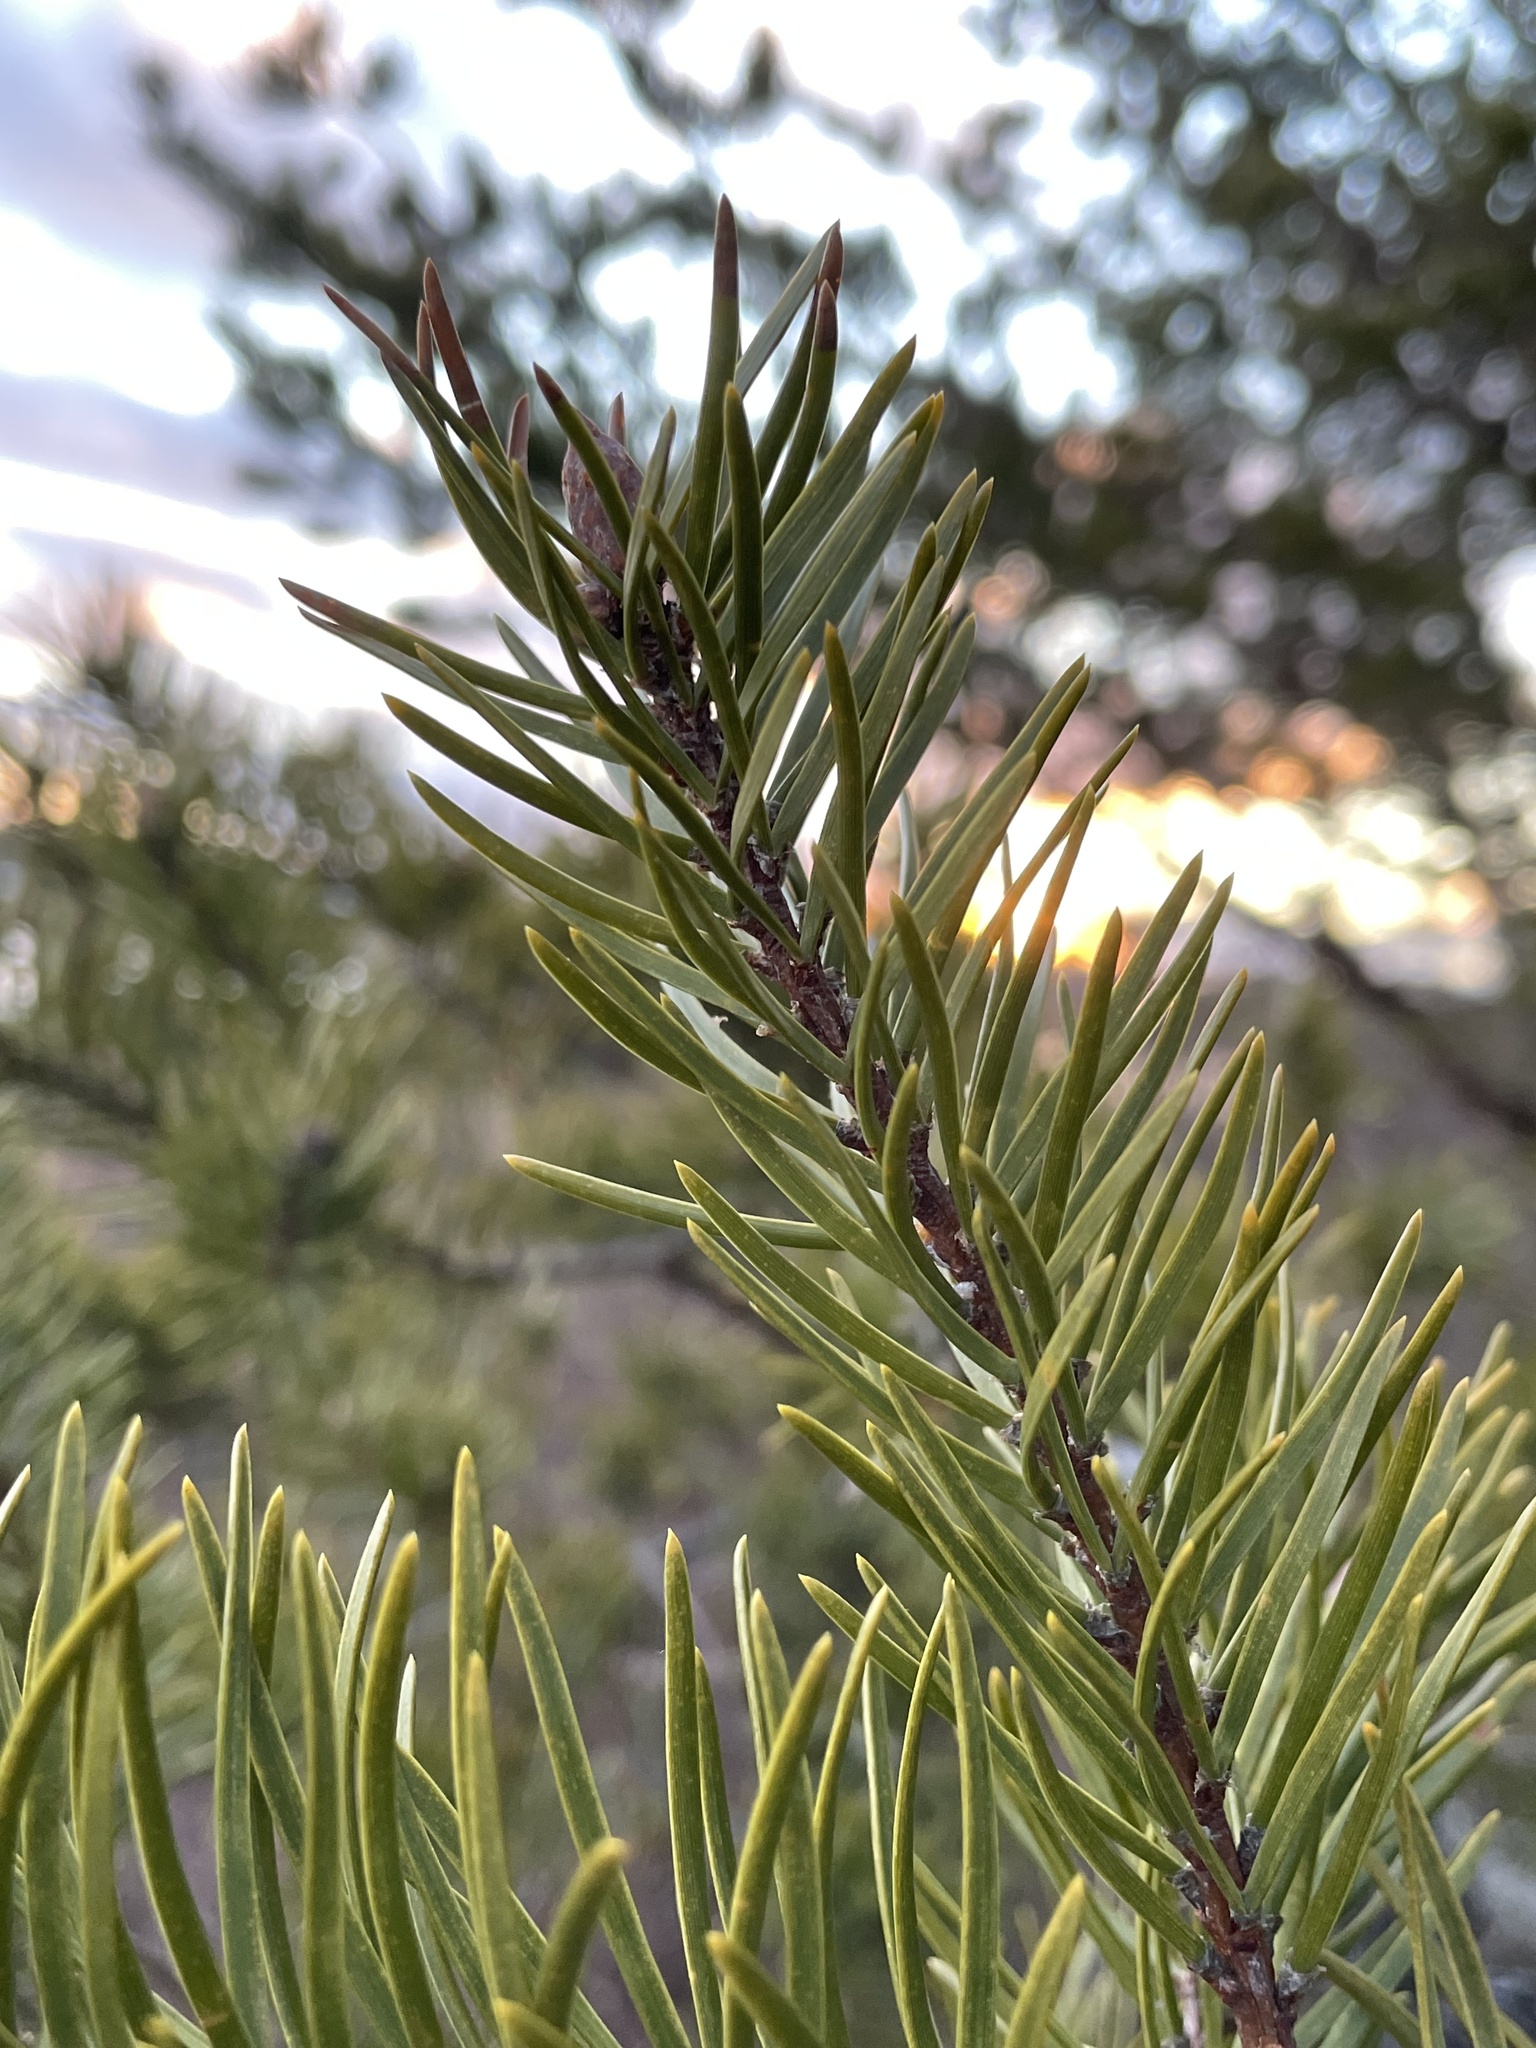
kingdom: Plantae
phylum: Tracheophyta
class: Pinopsida
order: Pinales
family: Pinaceae
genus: Pinus
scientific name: Pinus banksiana
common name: Jack pine
